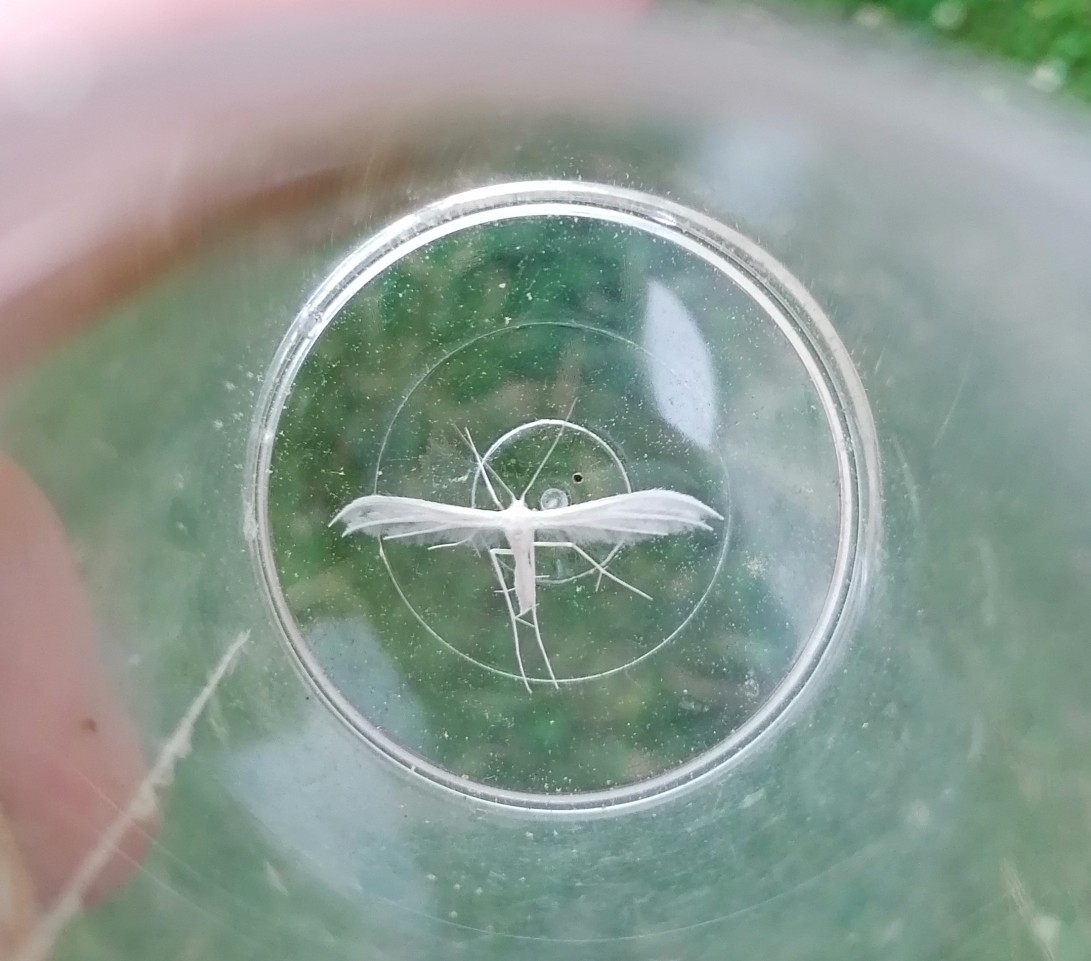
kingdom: Animalia
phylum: Arthropoda
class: Insecta
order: Lepidoptera
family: Pterophoridae
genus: Pterophorus
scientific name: Pterophorus pentadactyla
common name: White plume moth
